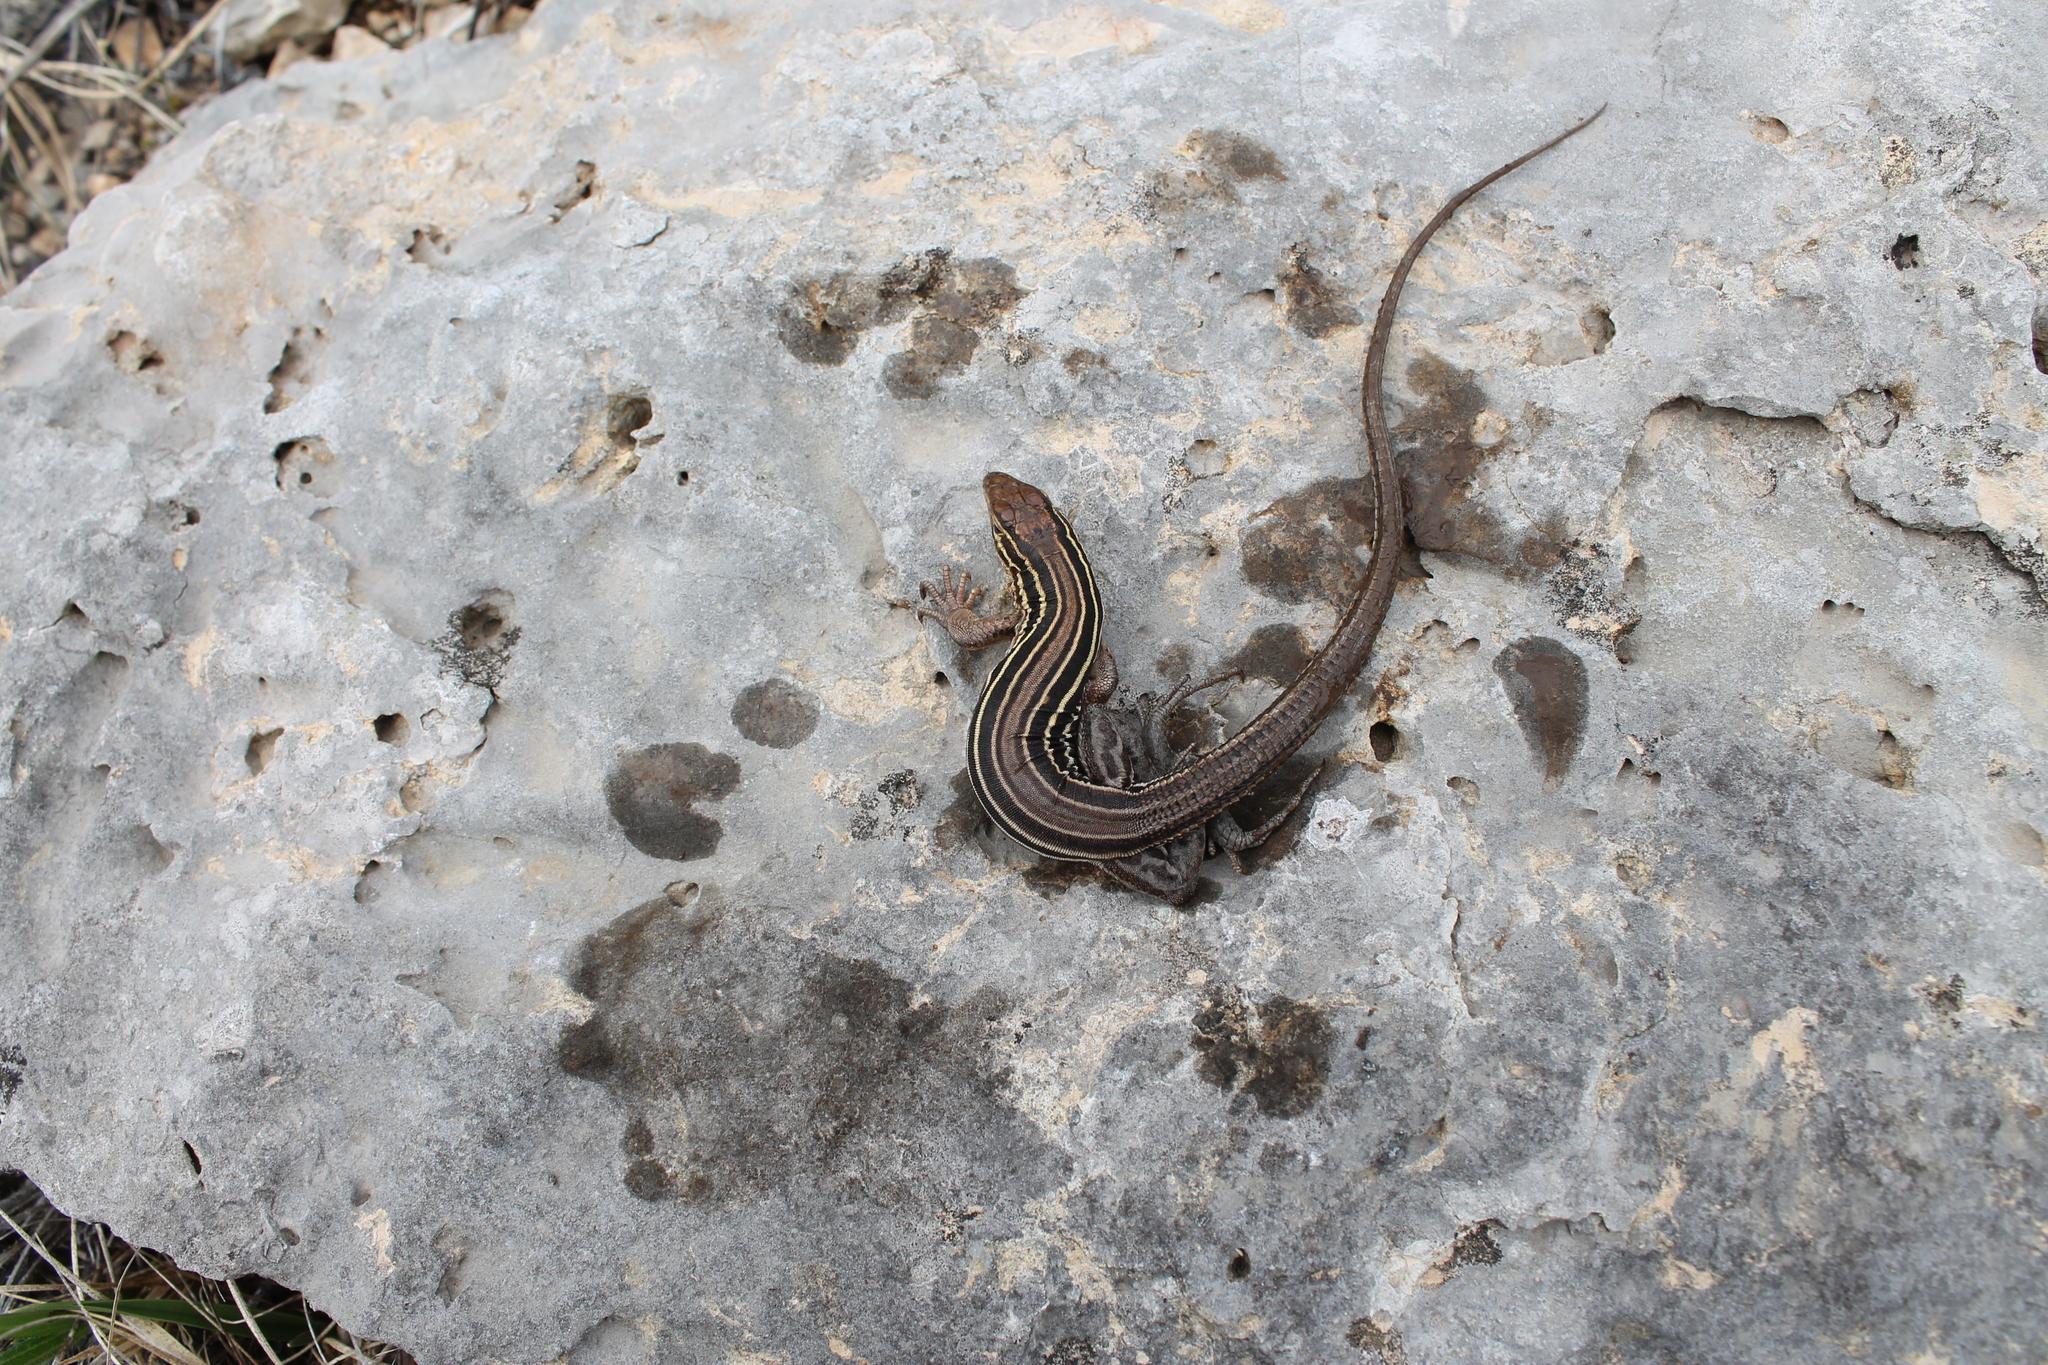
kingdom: Animalia
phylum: Chordata
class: Squamata
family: Teiidae
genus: Aspidoscelis
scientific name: Aspidoscelis sexlineatus
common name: Six-lined racerunner
